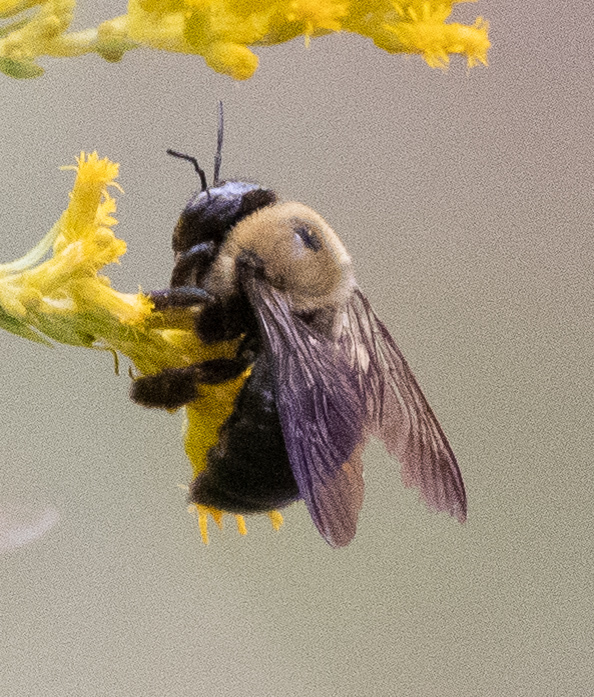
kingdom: Animalia
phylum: Arthropoda
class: Insecta
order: Hymenoptera
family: Apidae
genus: Xylocopa
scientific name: Xylocopa virginica
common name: Carpenter bee
